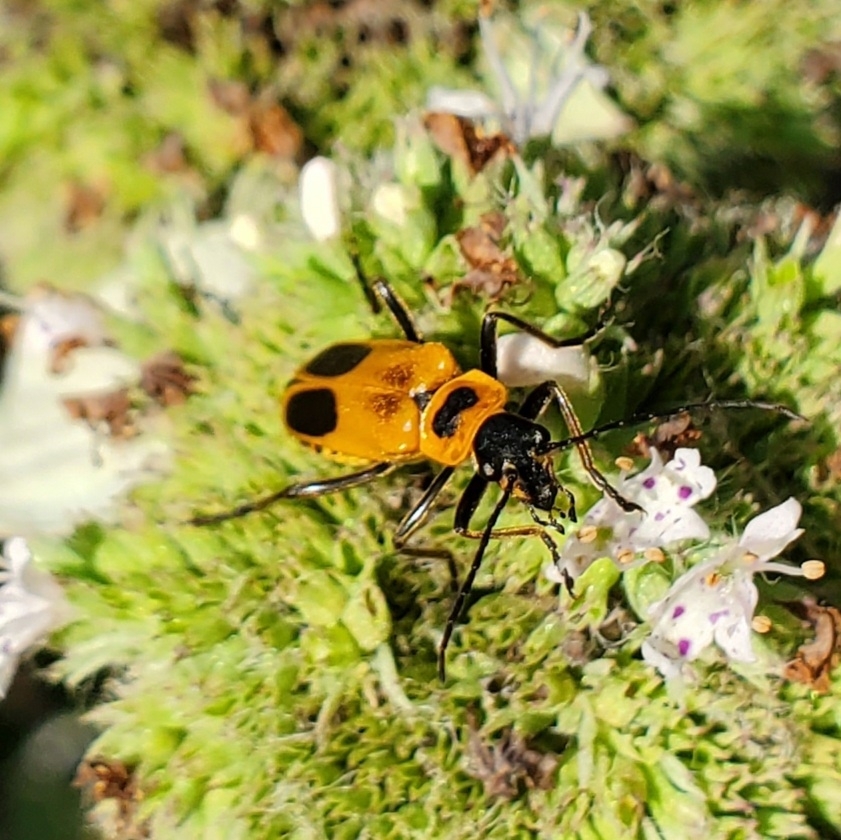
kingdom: Animalia
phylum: Arthropoda
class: Insecta
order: Coleoptera
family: Cantharidae
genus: Chauliognathus
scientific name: Chauliognathus pensylvanicus
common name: Goldenrod soldier beetle
